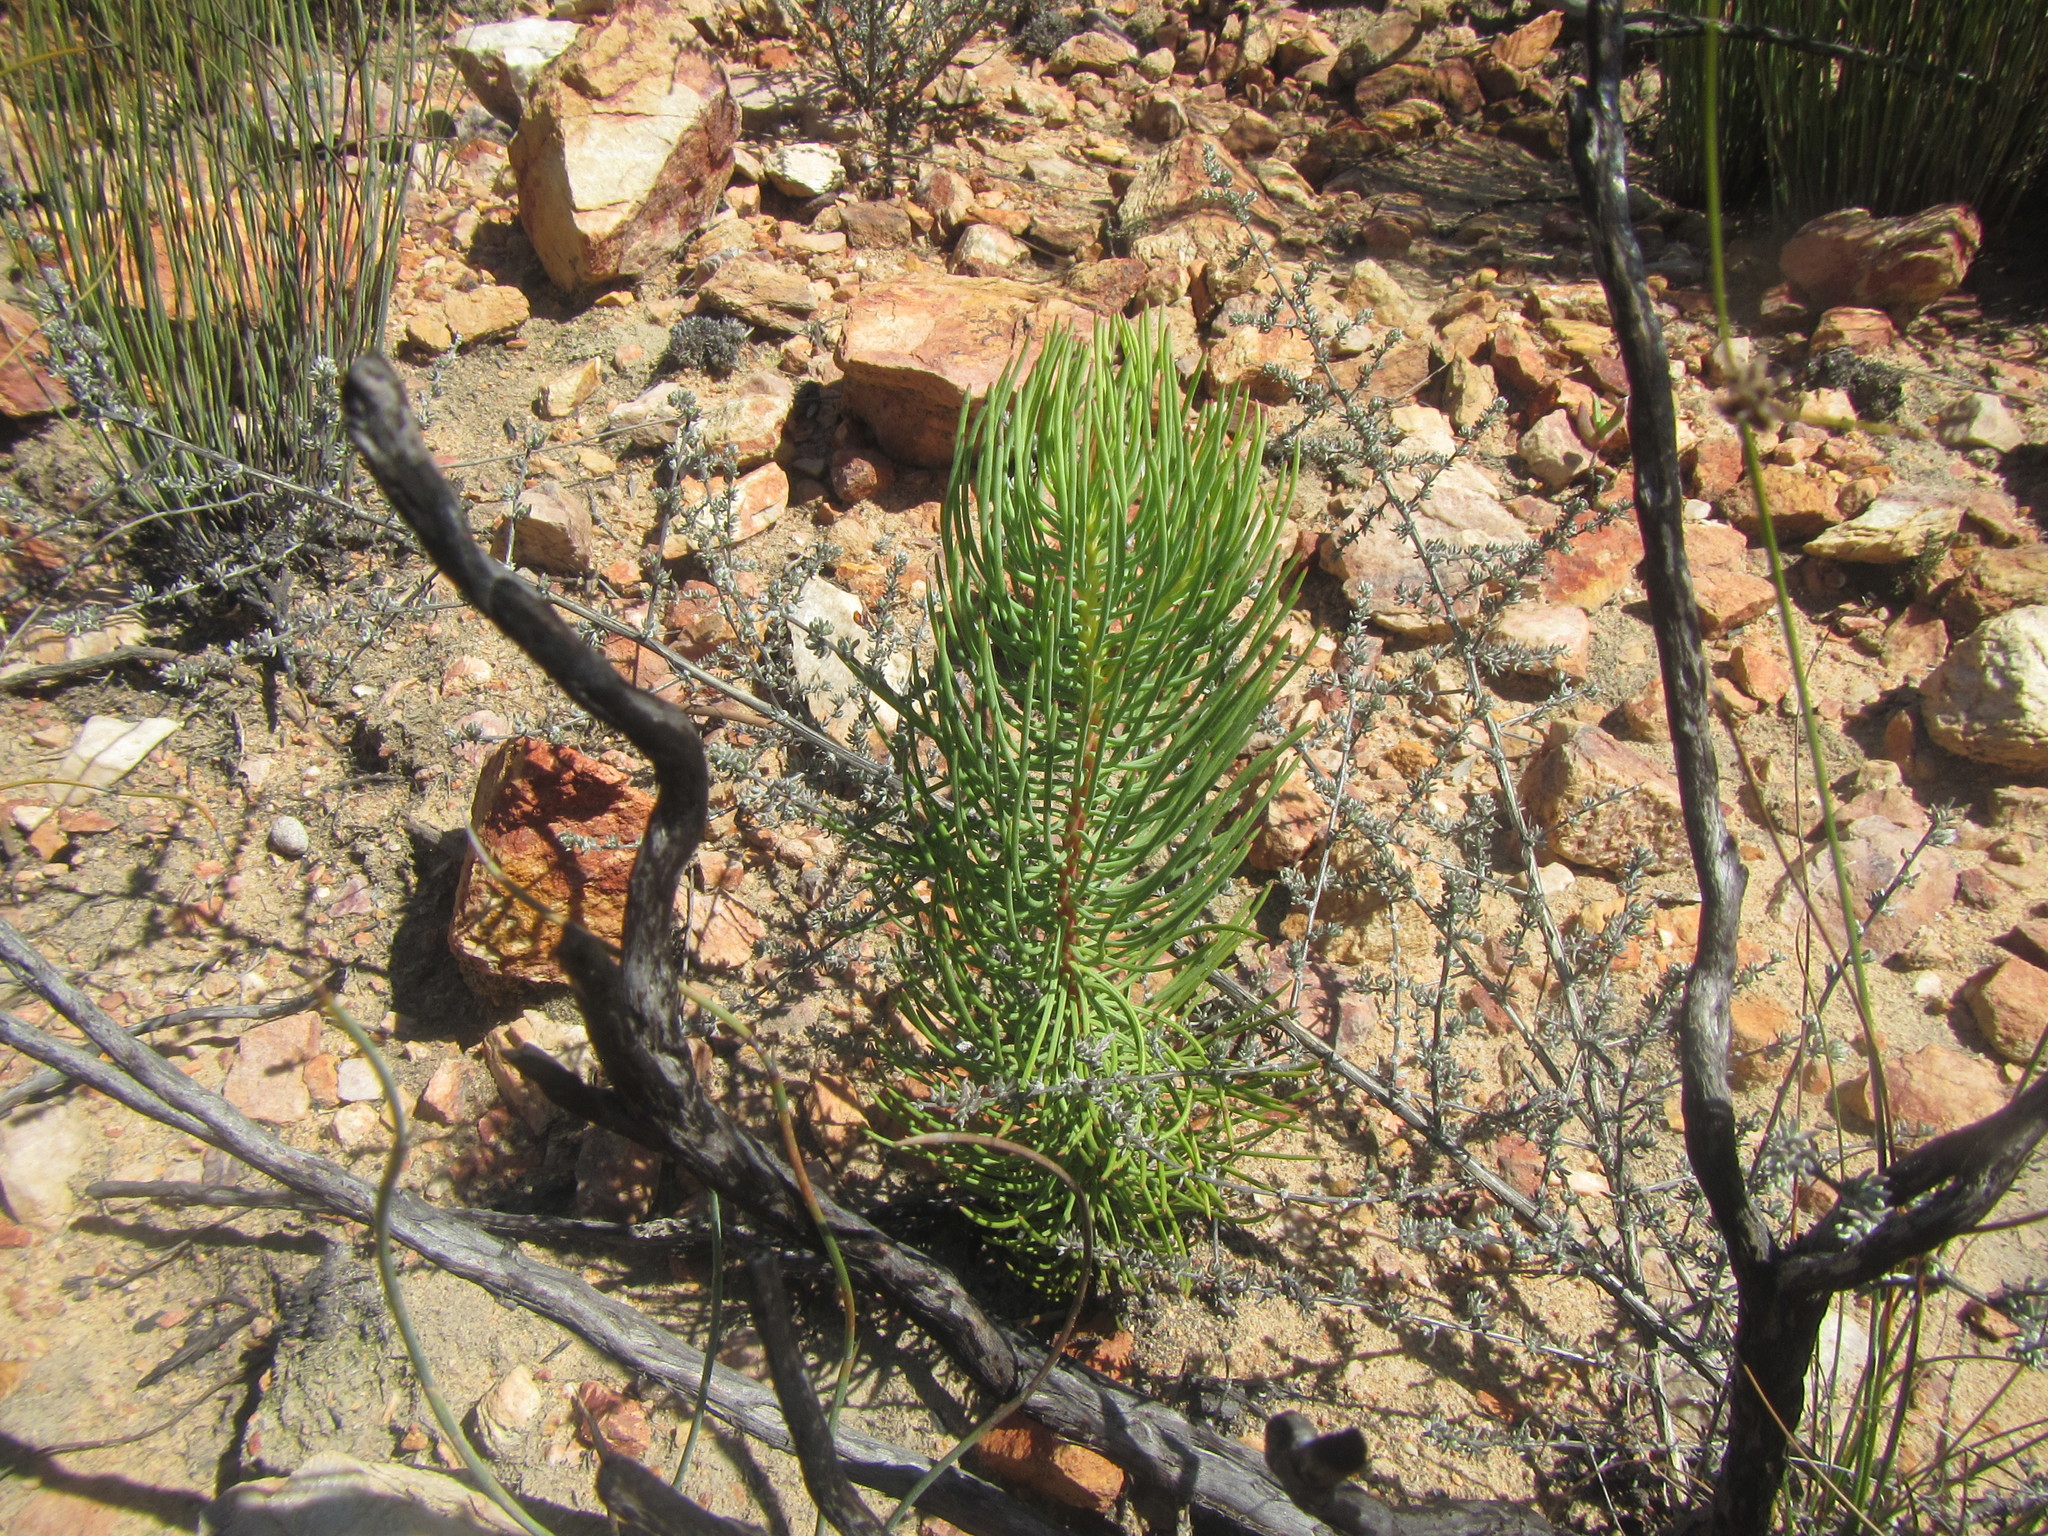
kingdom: Plantae
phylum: Tracheophyta
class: Magnoliopsida
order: Proteales
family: Proteaceae
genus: Leucadendron
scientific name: Leucadendron nobile
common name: Karoo conebush
